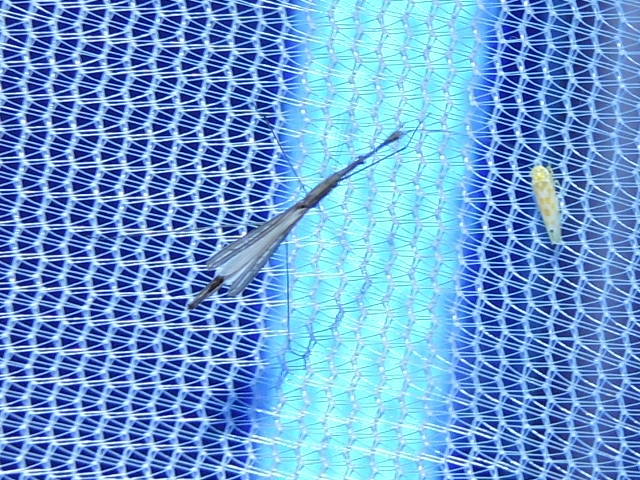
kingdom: Animalia
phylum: Arthropoda
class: Insecta
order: Hemiptera
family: Hydrometridae
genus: Hydrometra
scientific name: Hydrometra
